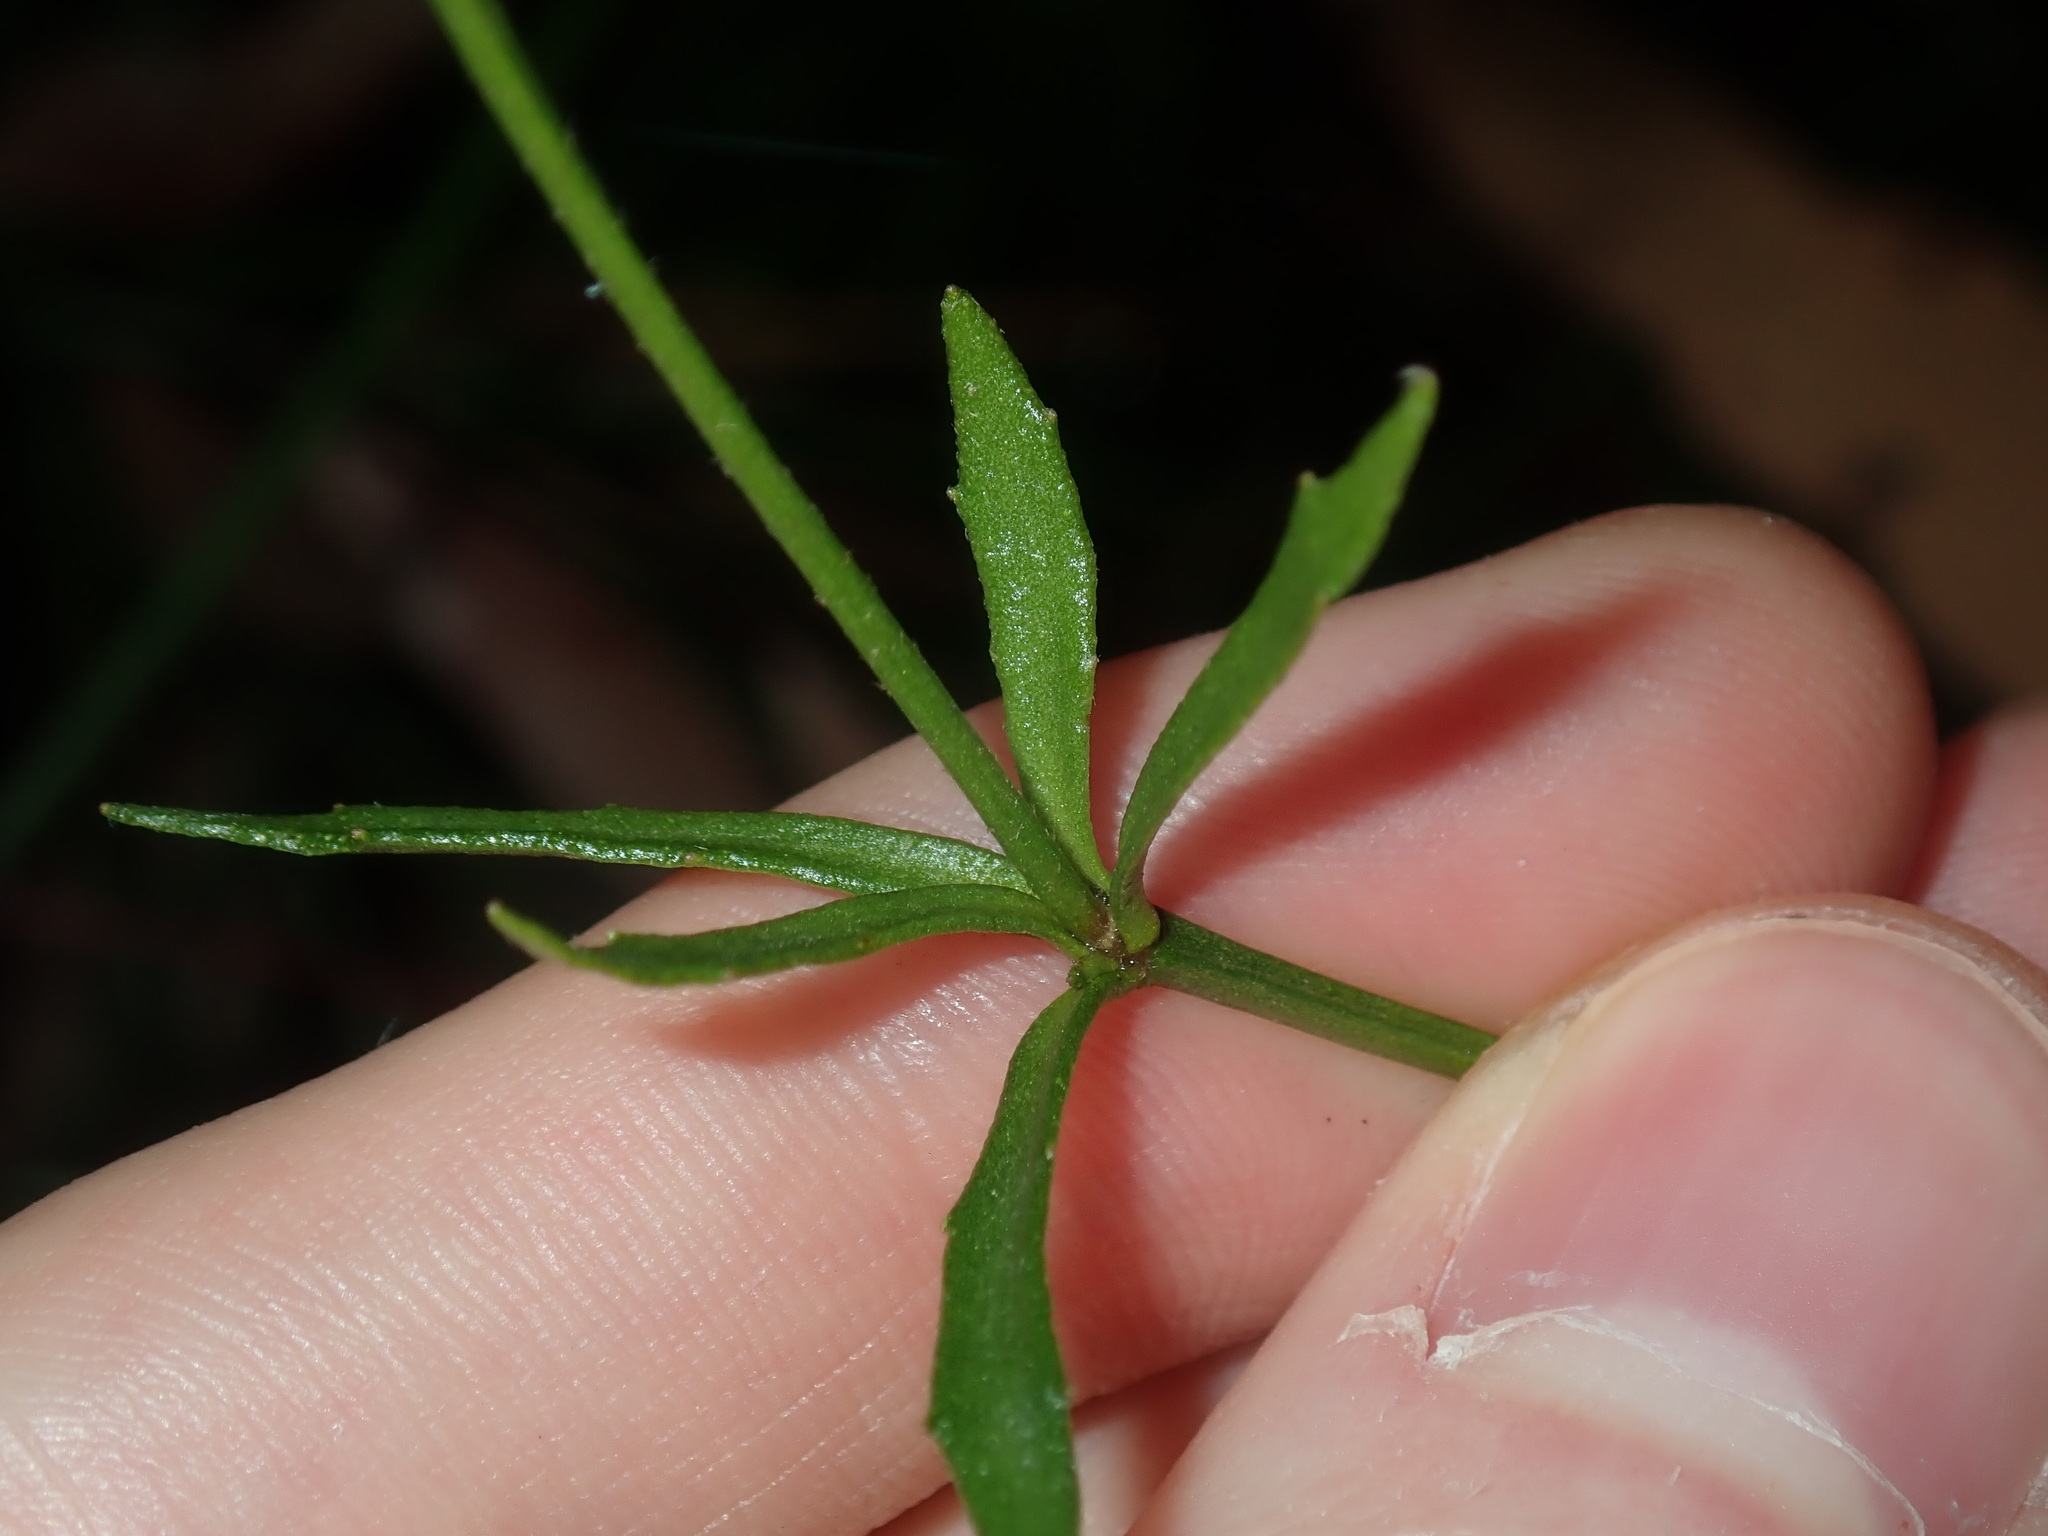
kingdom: Plantae
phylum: Tracheophyta
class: Magnoliopsida
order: Asterales
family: Goodeniaceae
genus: Dampiera
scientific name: Dampiera stricta
